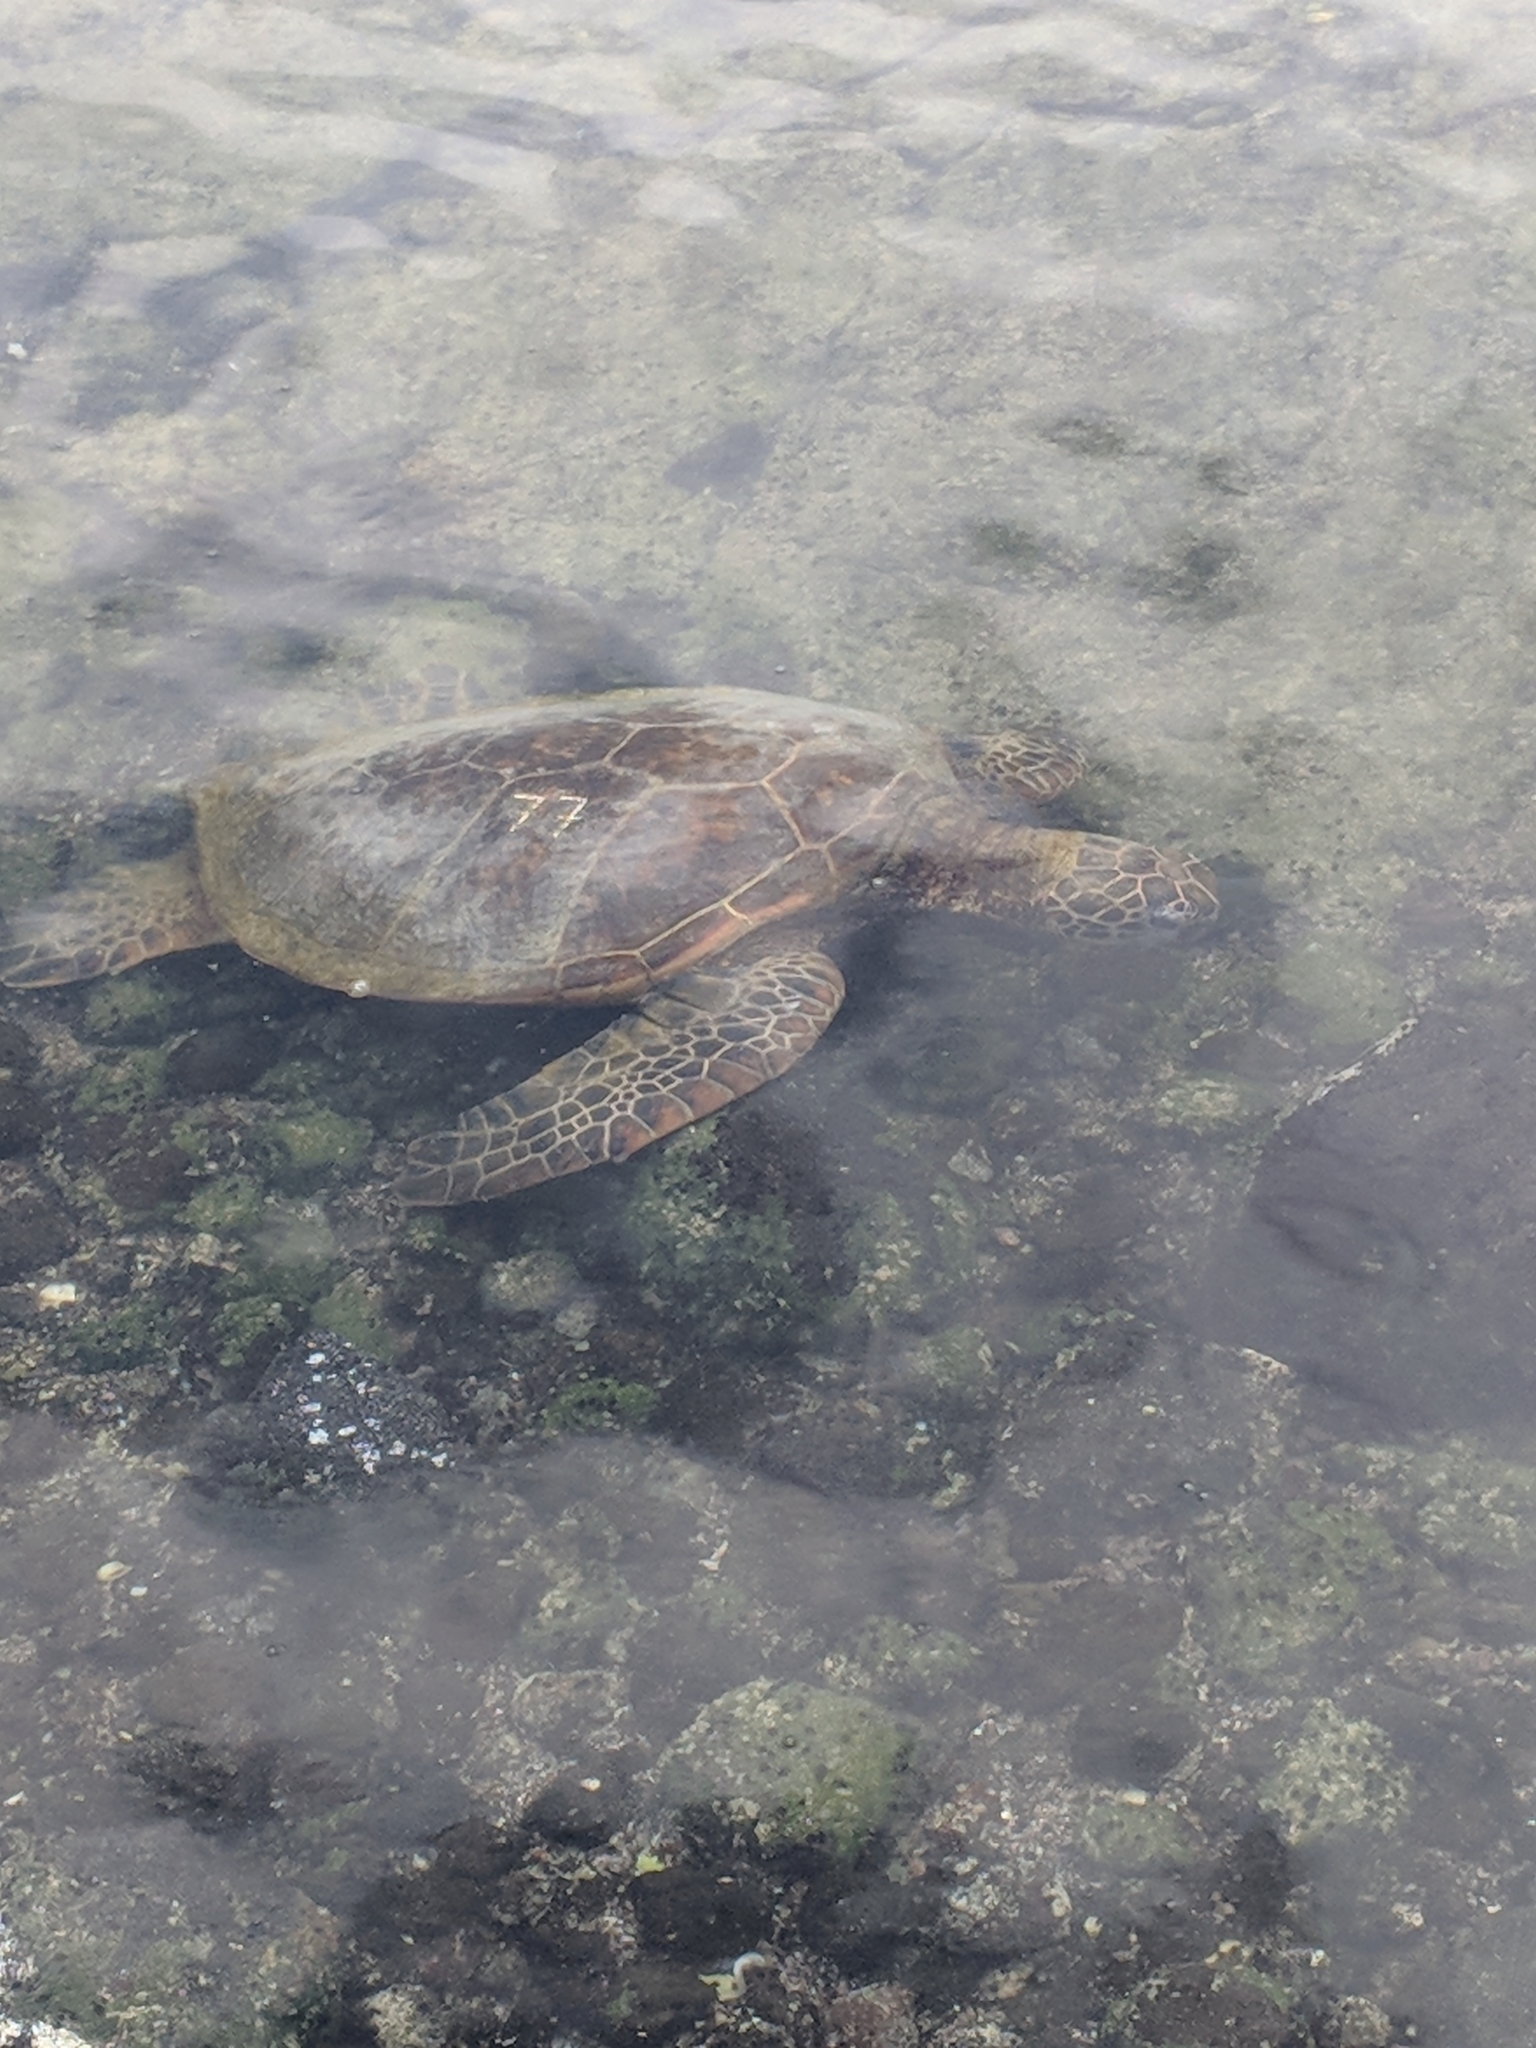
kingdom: Animalia
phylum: Chordata
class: Testudines
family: Cheloniidae
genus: Chelonia
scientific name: Chelonia mydas
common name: Green turtle
